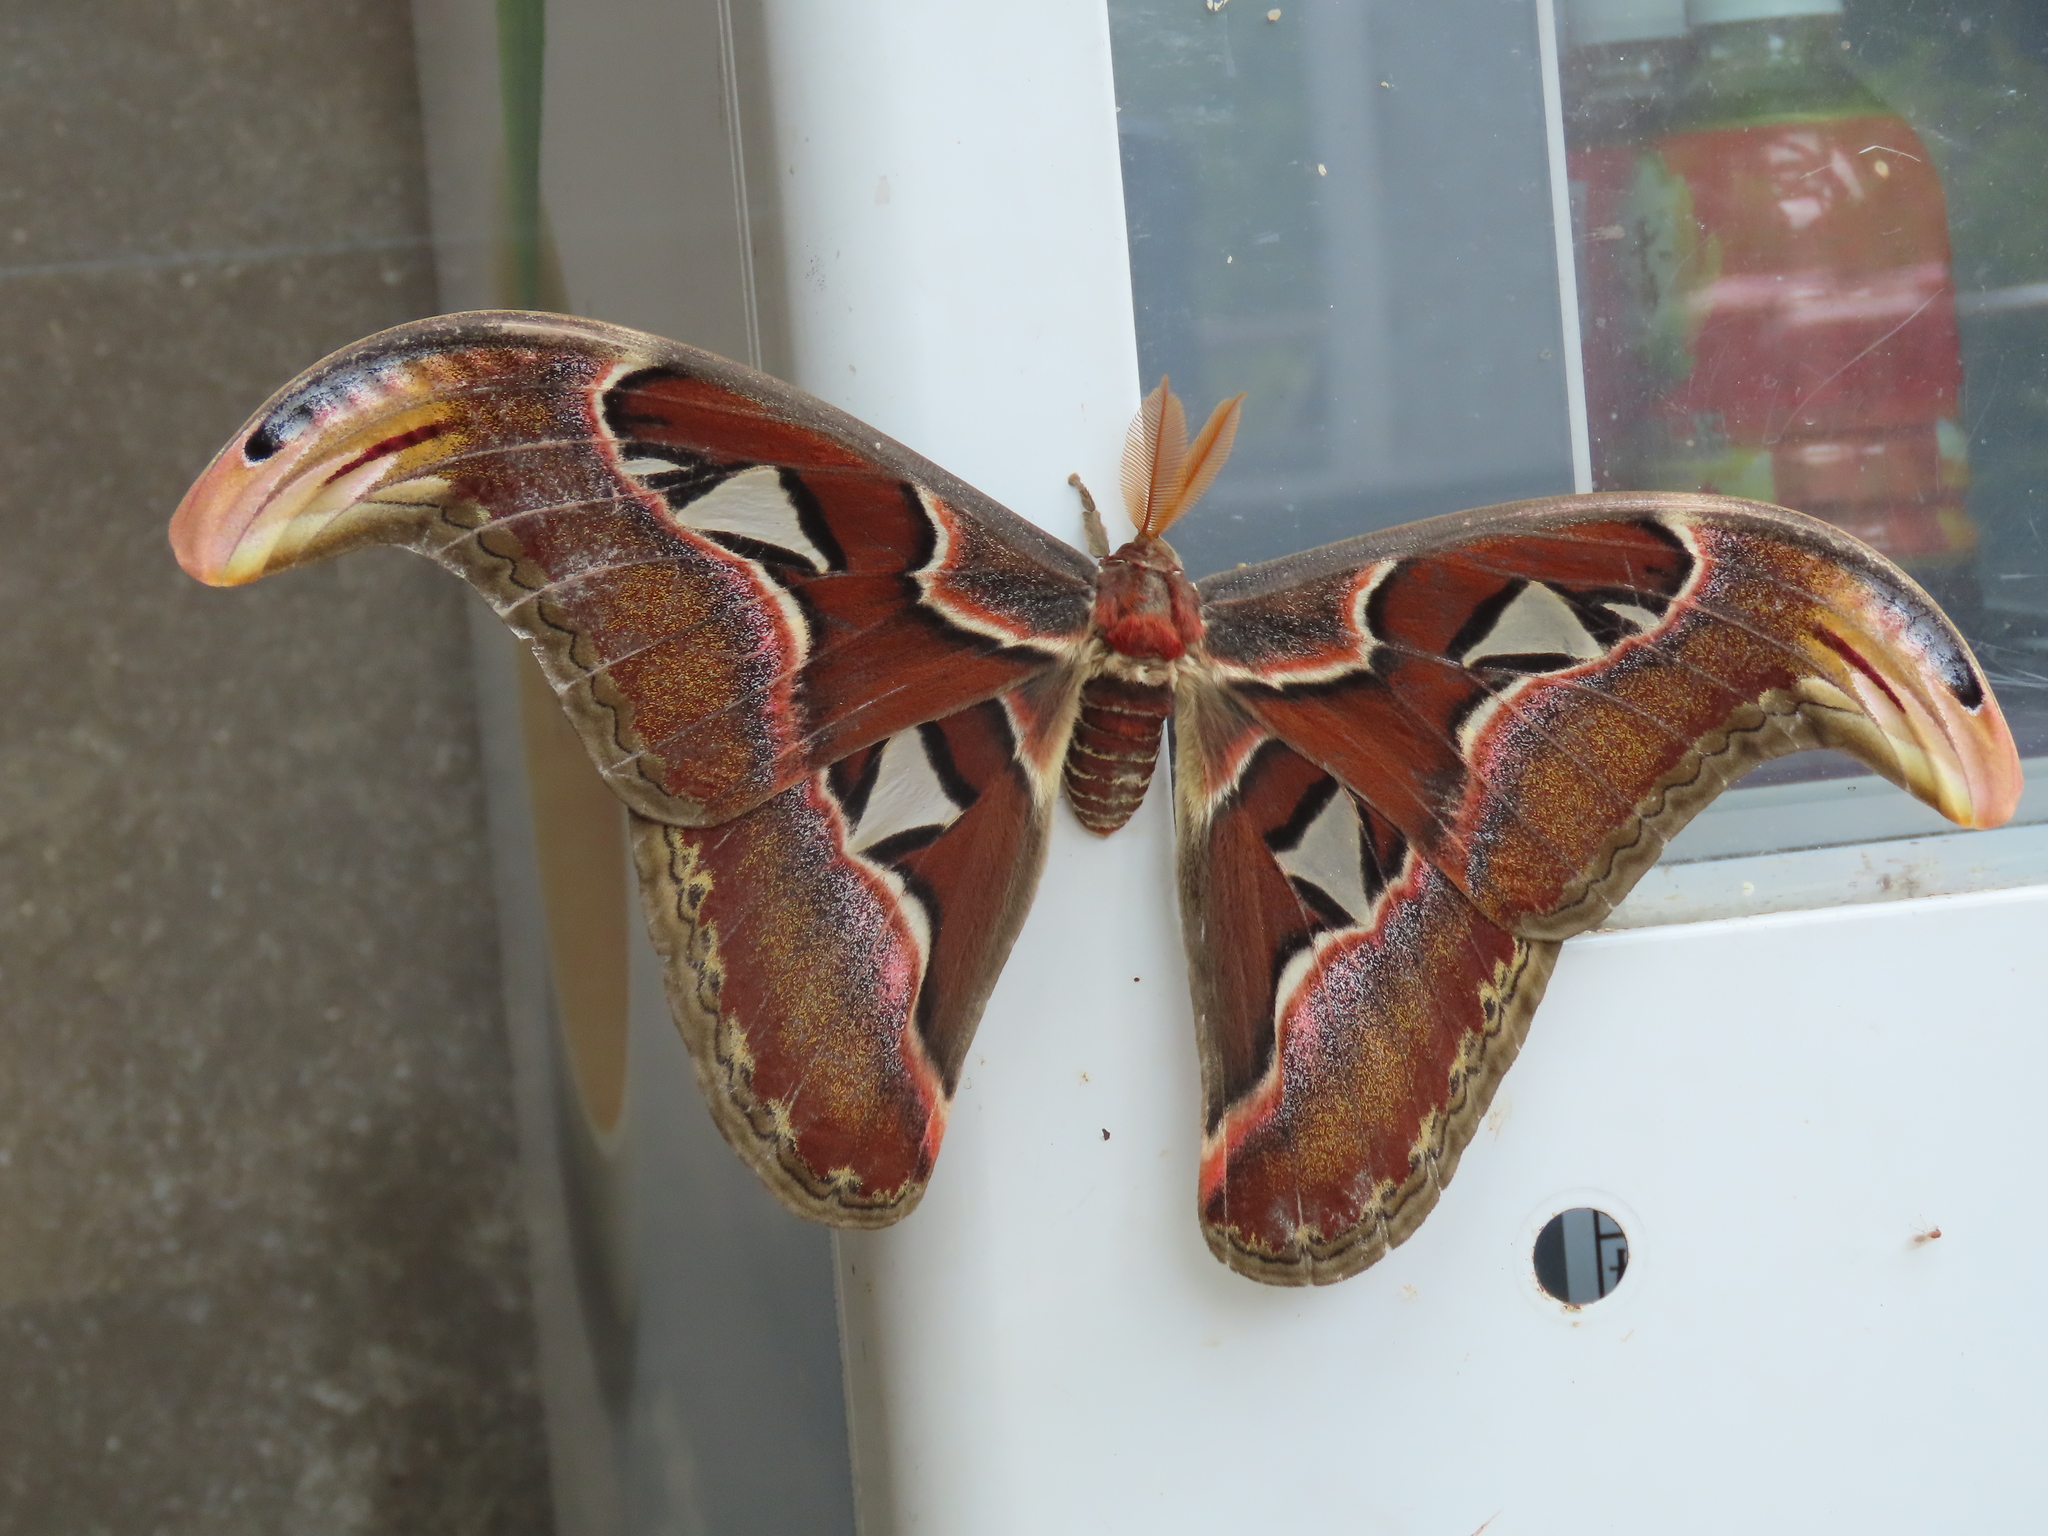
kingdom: Animalia
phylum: Arthropoda
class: Insecta
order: Lepidoptera
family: Saturniidae
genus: Attacus
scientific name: Attacus atlas
